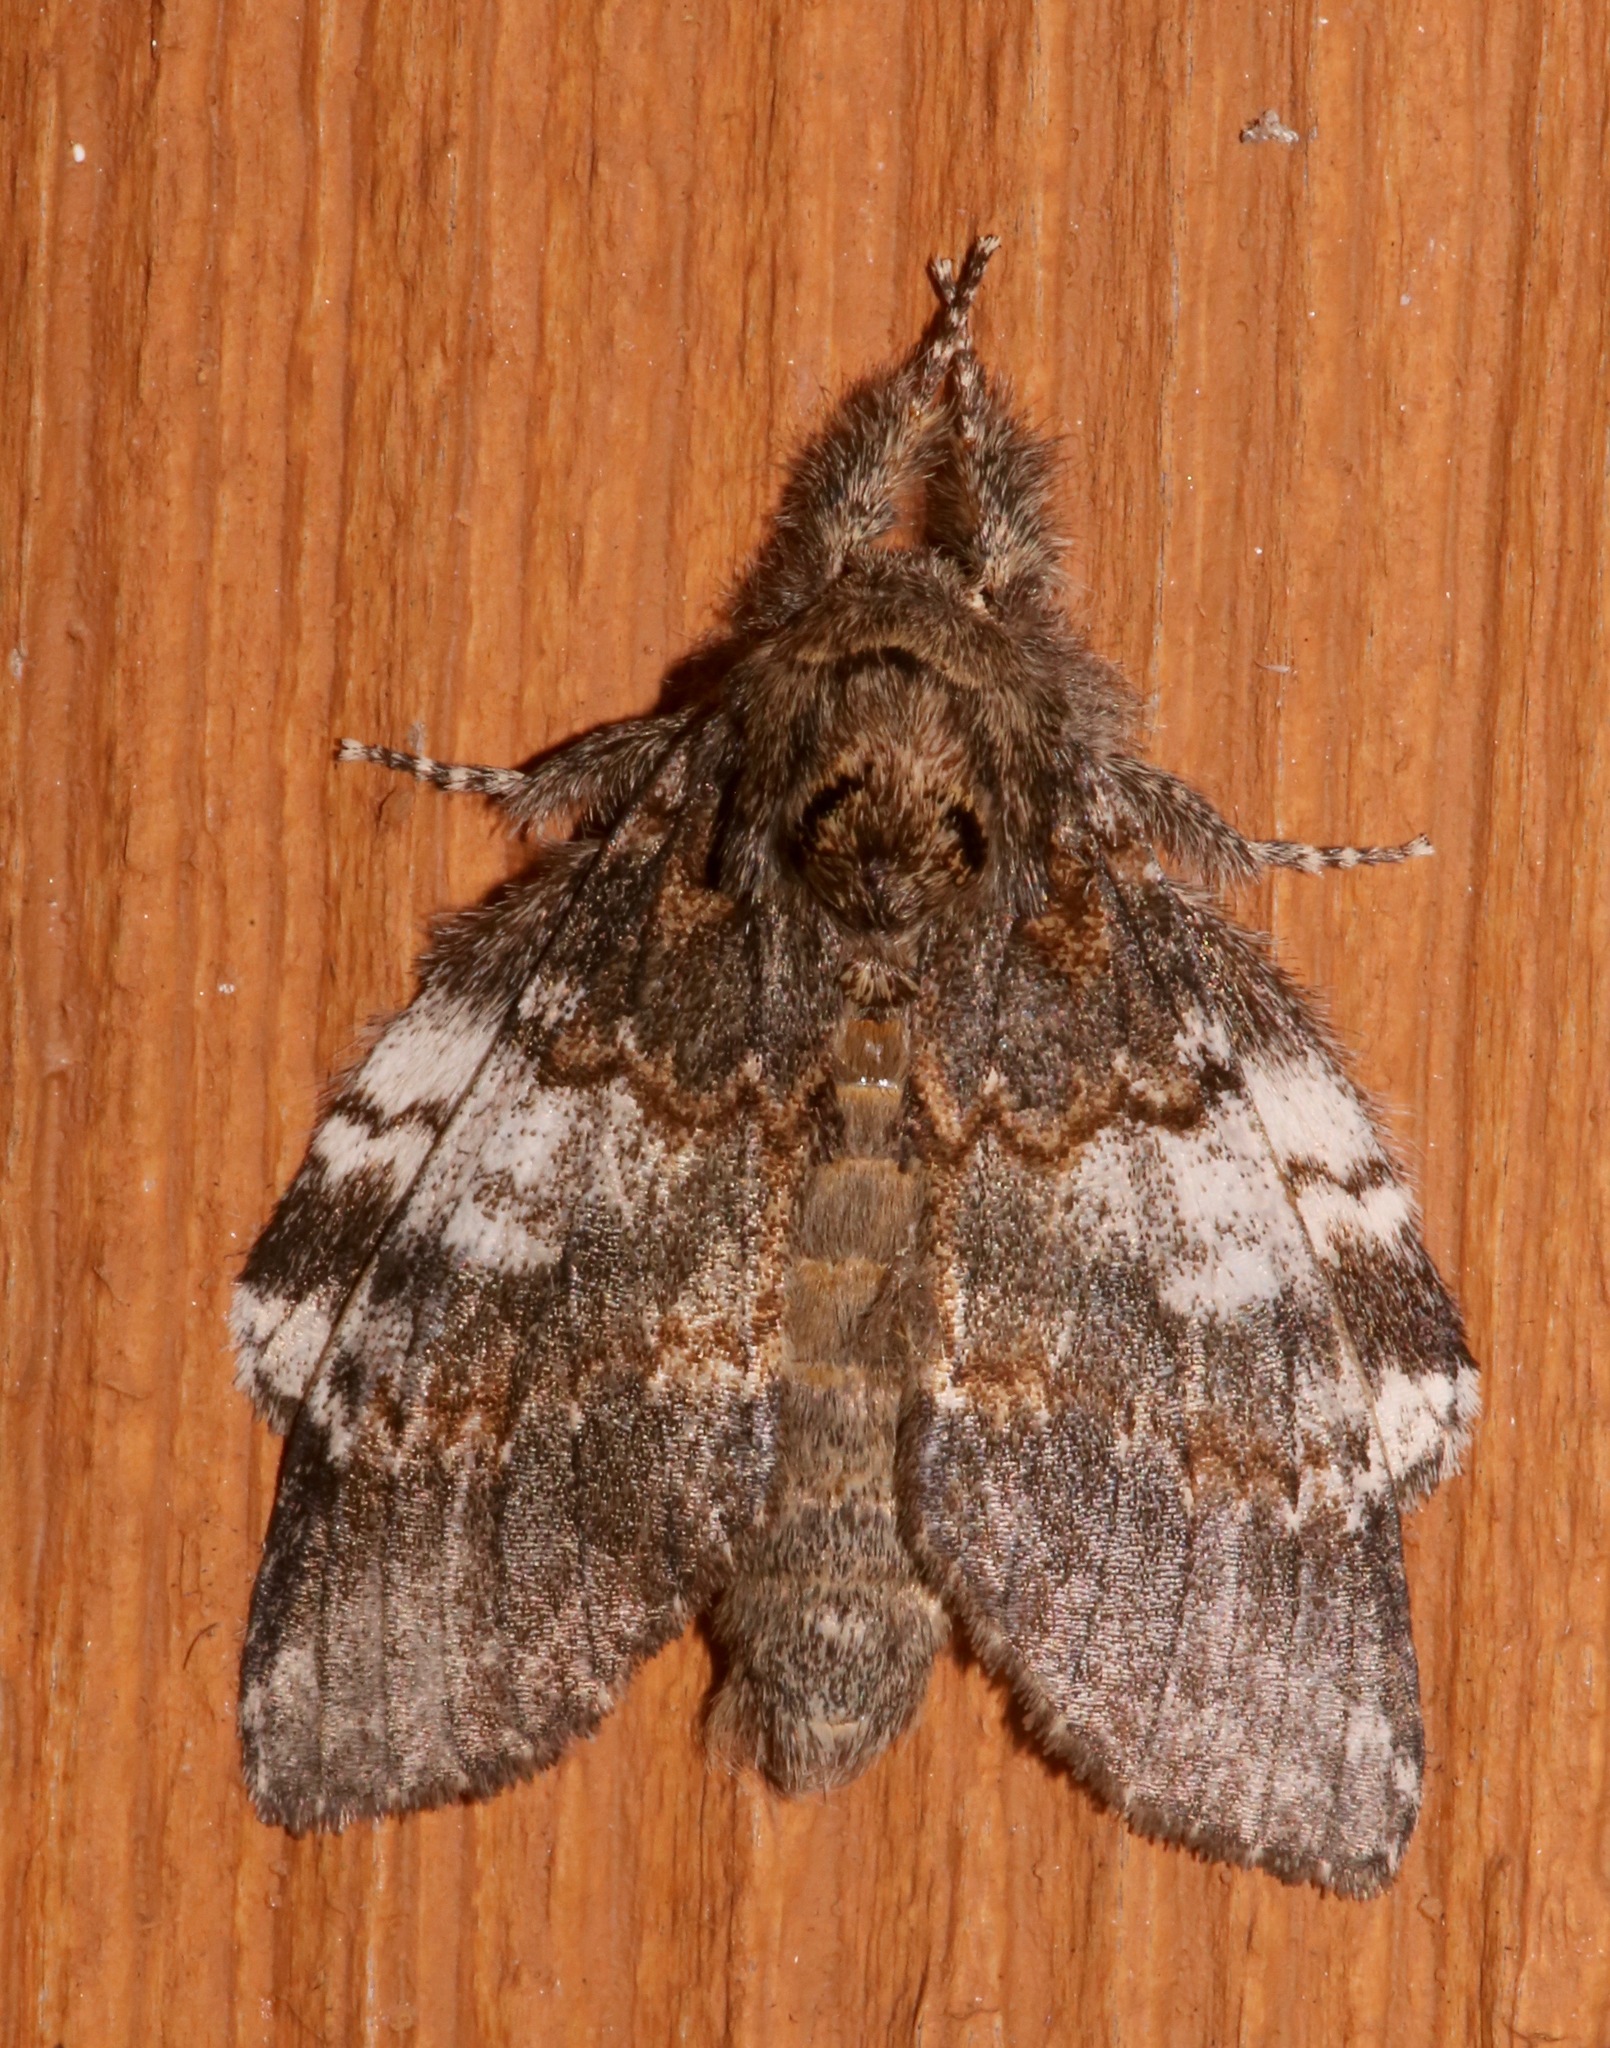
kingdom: Animalia
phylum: Arthropoda
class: Insecta
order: Lepidoptera
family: Notodontidae
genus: Peridea
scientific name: Peridea angulosa
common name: Angulose prominent
